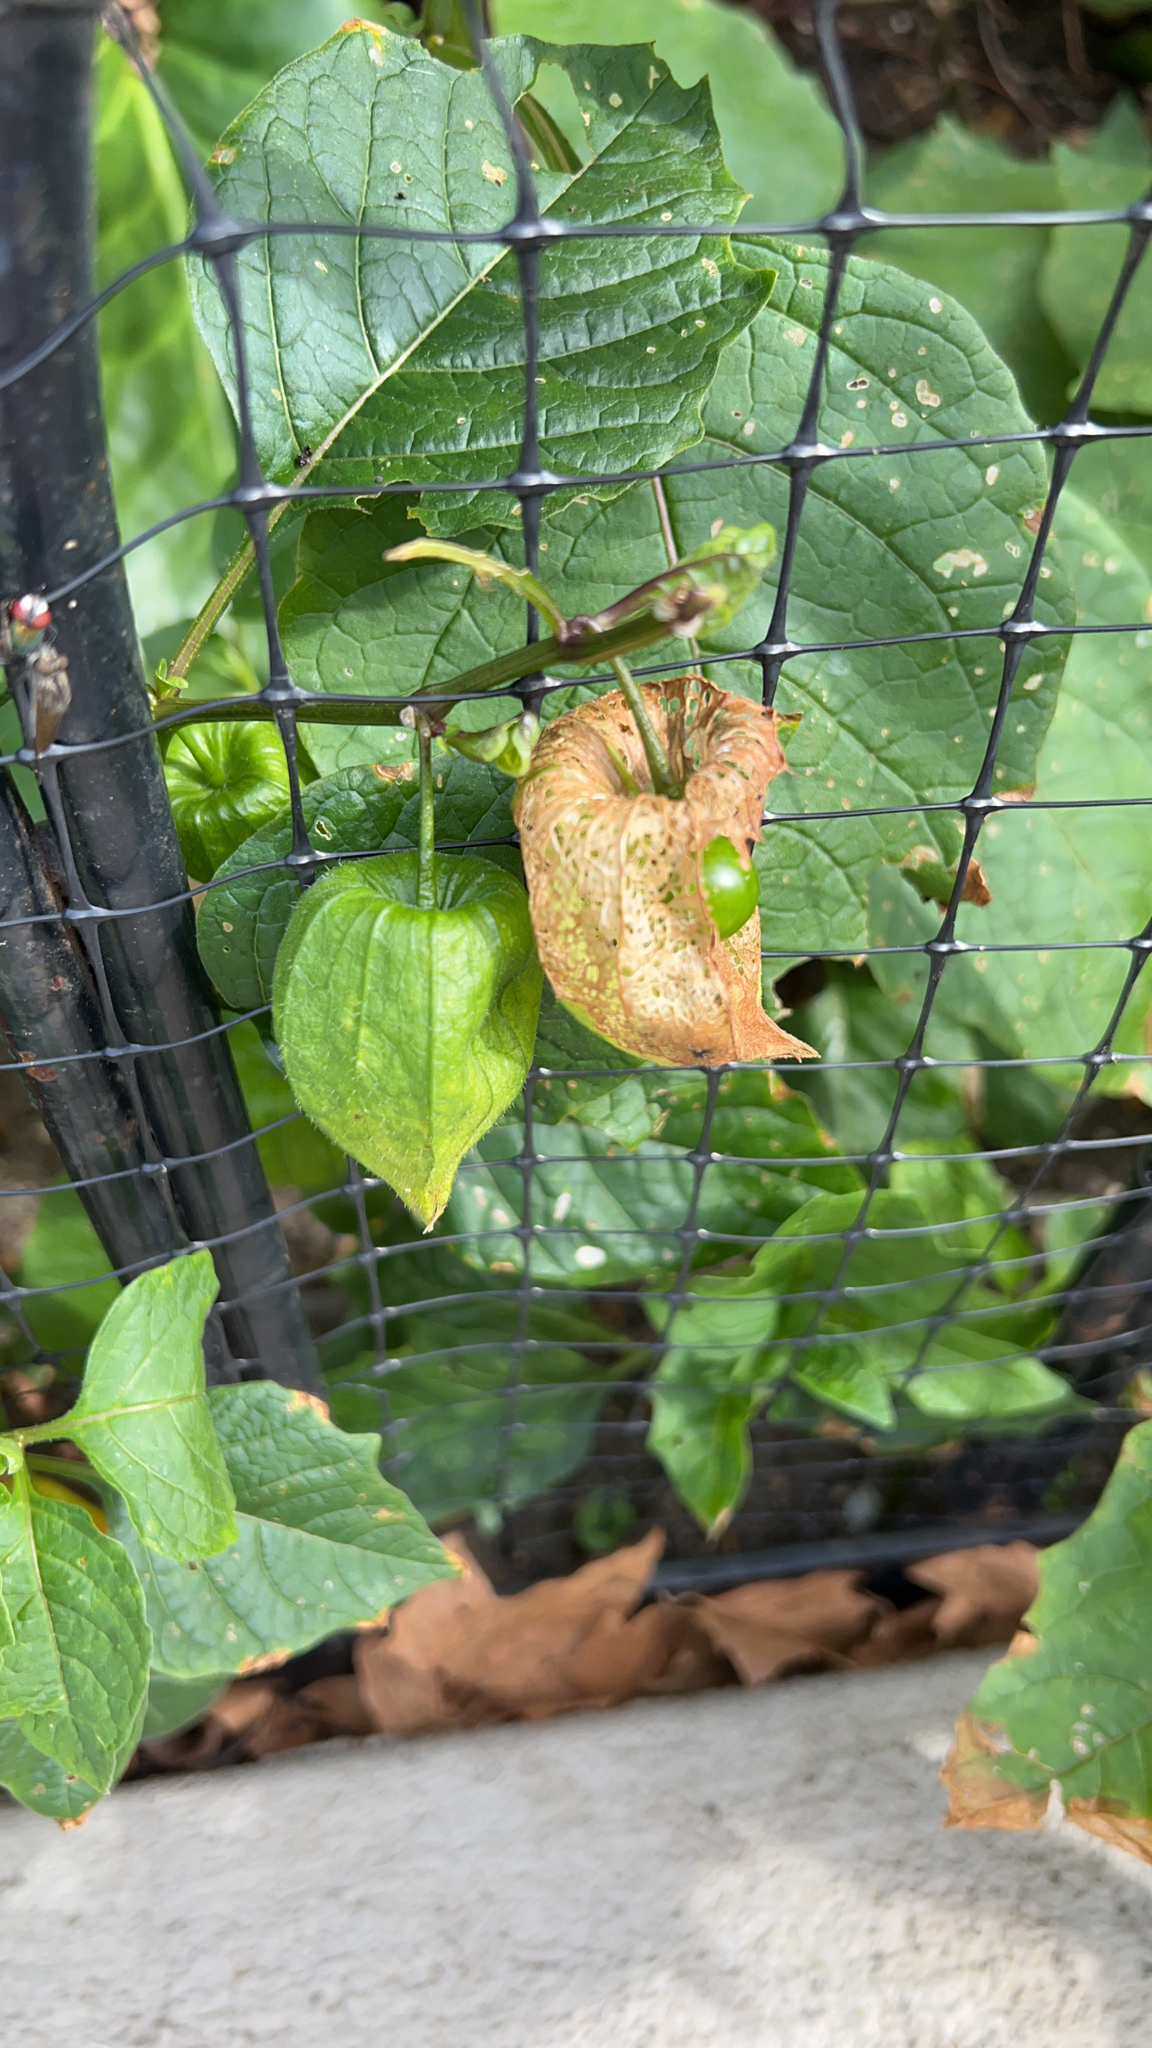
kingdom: Plantae
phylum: Tracheophyta
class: Magnoliopsida
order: Solanales
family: Solanaceae
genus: Alkekengi
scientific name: Alkekengi officinarum
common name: Japanese-lantern
